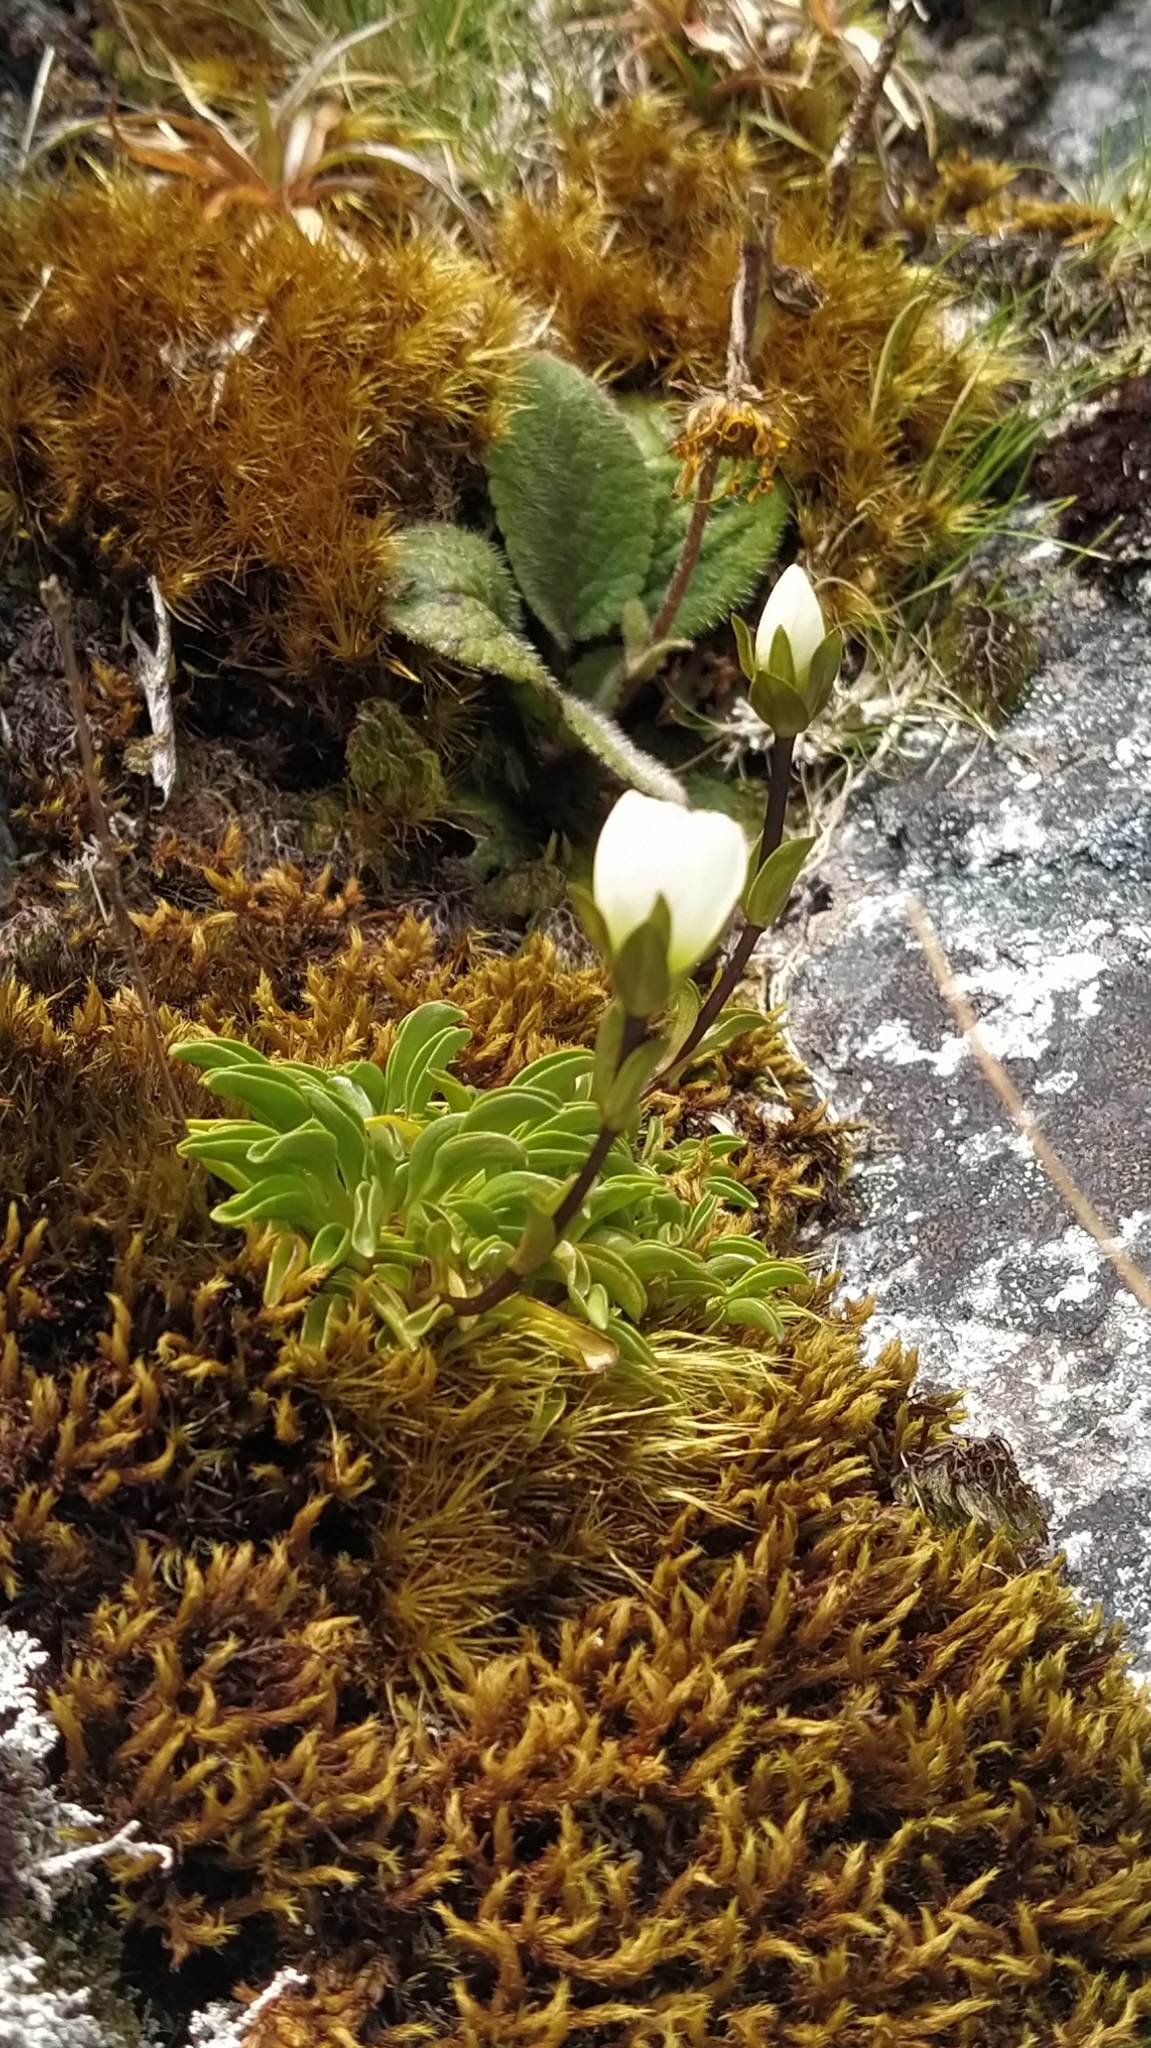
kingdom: Plantae
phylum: Tracheophyta
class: Magnoliopsida
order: Gentianales
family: Gentianaceae
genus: Gentianella
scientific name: Gentianella bellidifolia
